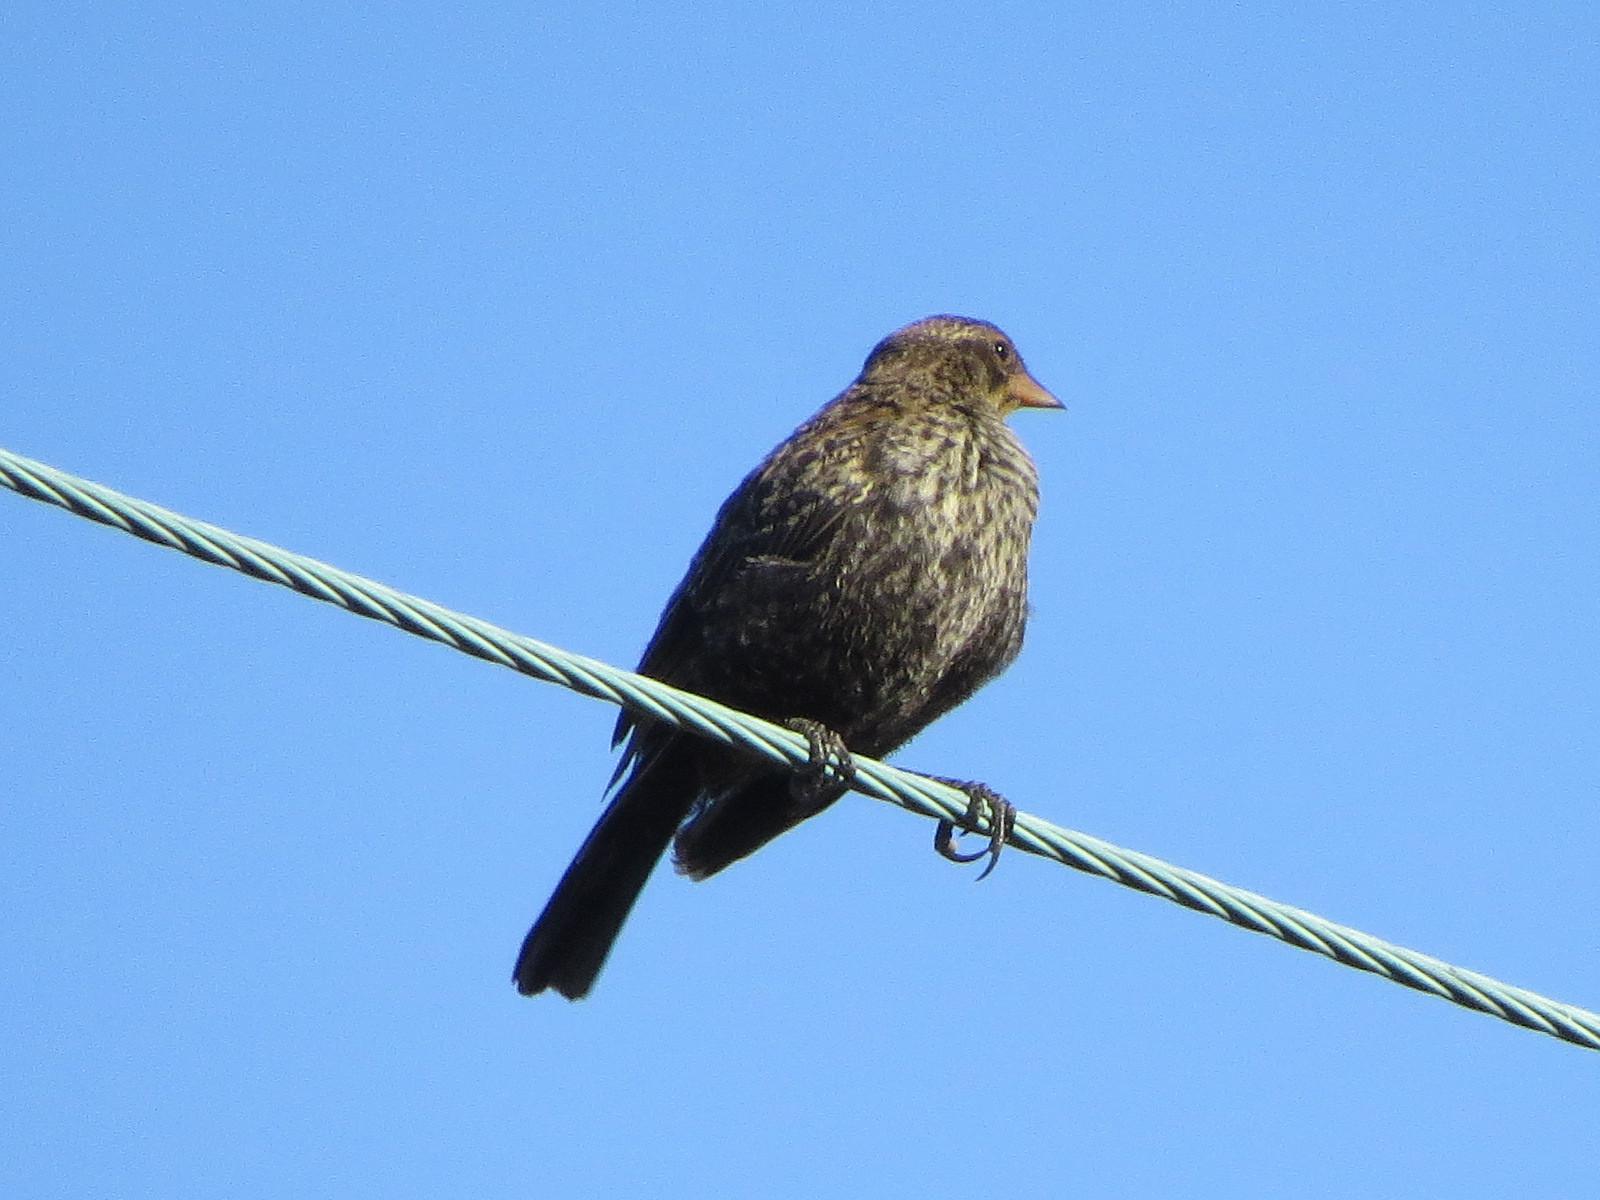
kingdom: Animalia
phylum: Chordata
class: Aves
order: Passeriformes
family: Icteridae
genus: Agelaius
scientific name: Agelaius phoeniceus
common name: Red-winged blackbird
